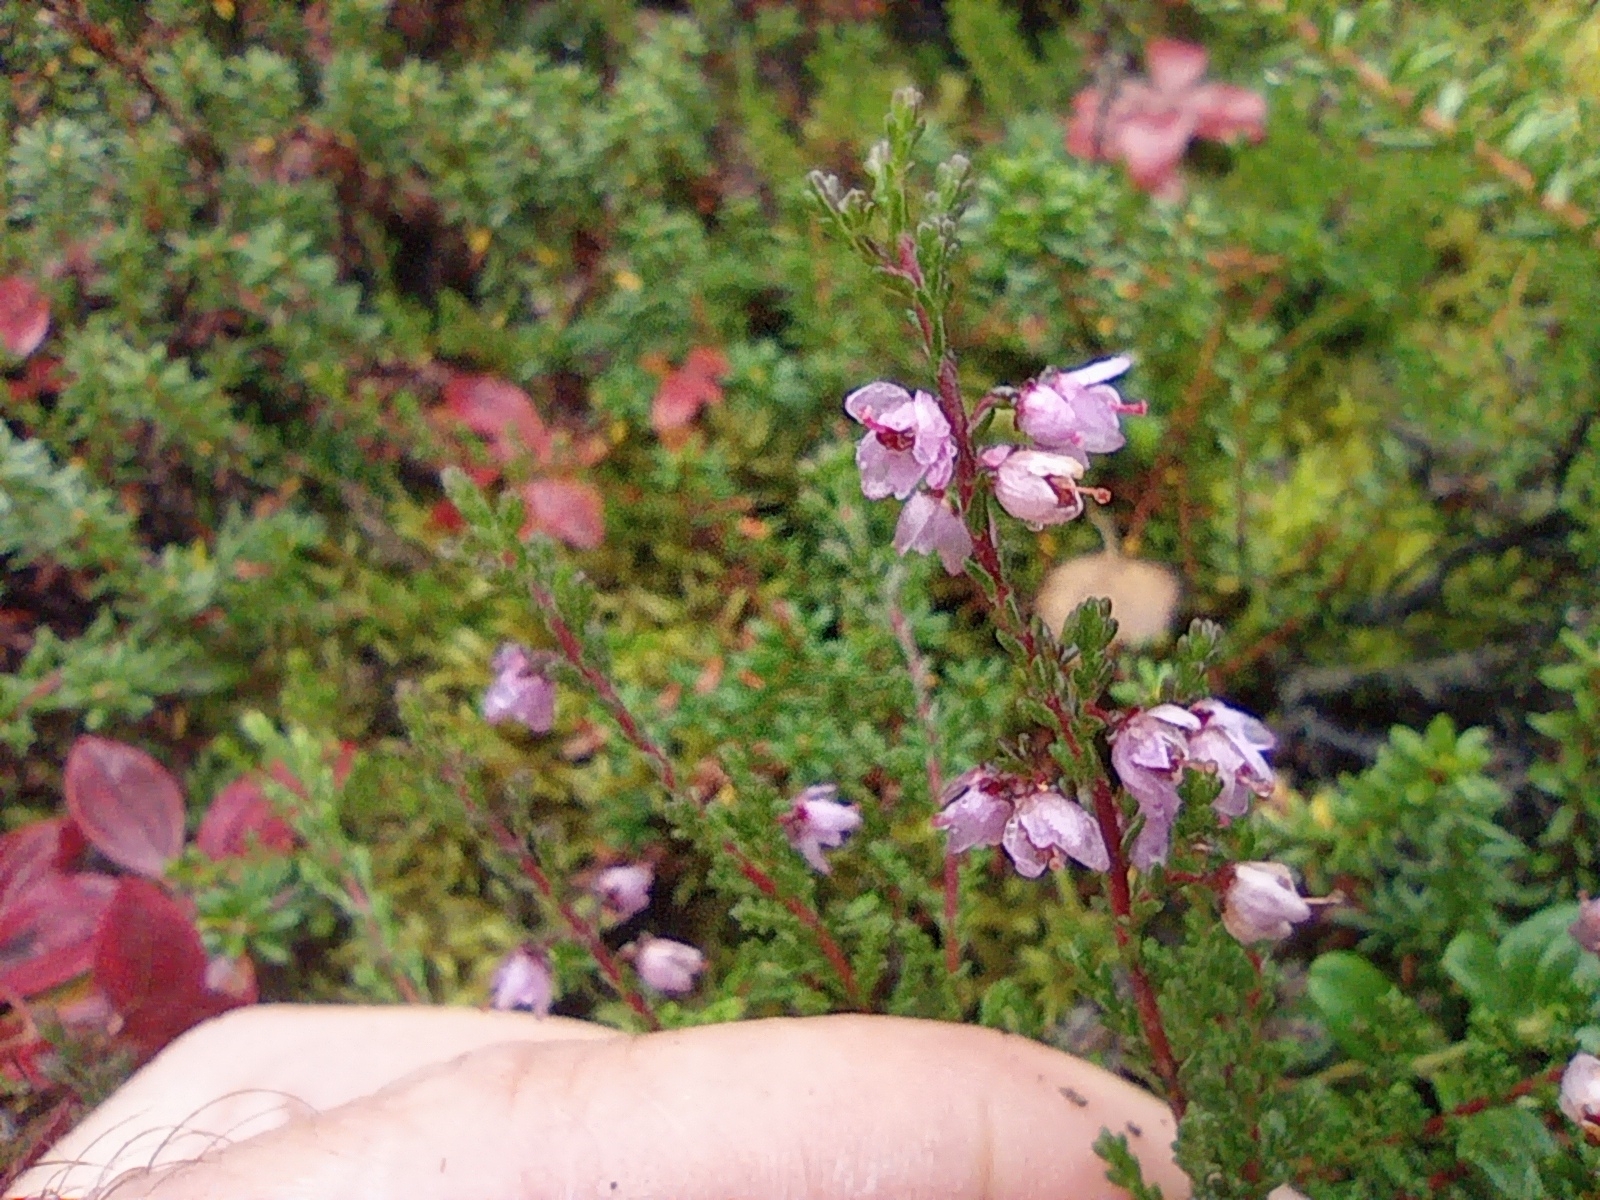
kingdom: Plantae
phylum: Tracheophyta
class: Magnoliopsida
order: Ericales
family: Ericaceae
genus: Calluna
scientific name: Calluna vulgaris
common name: Heather
